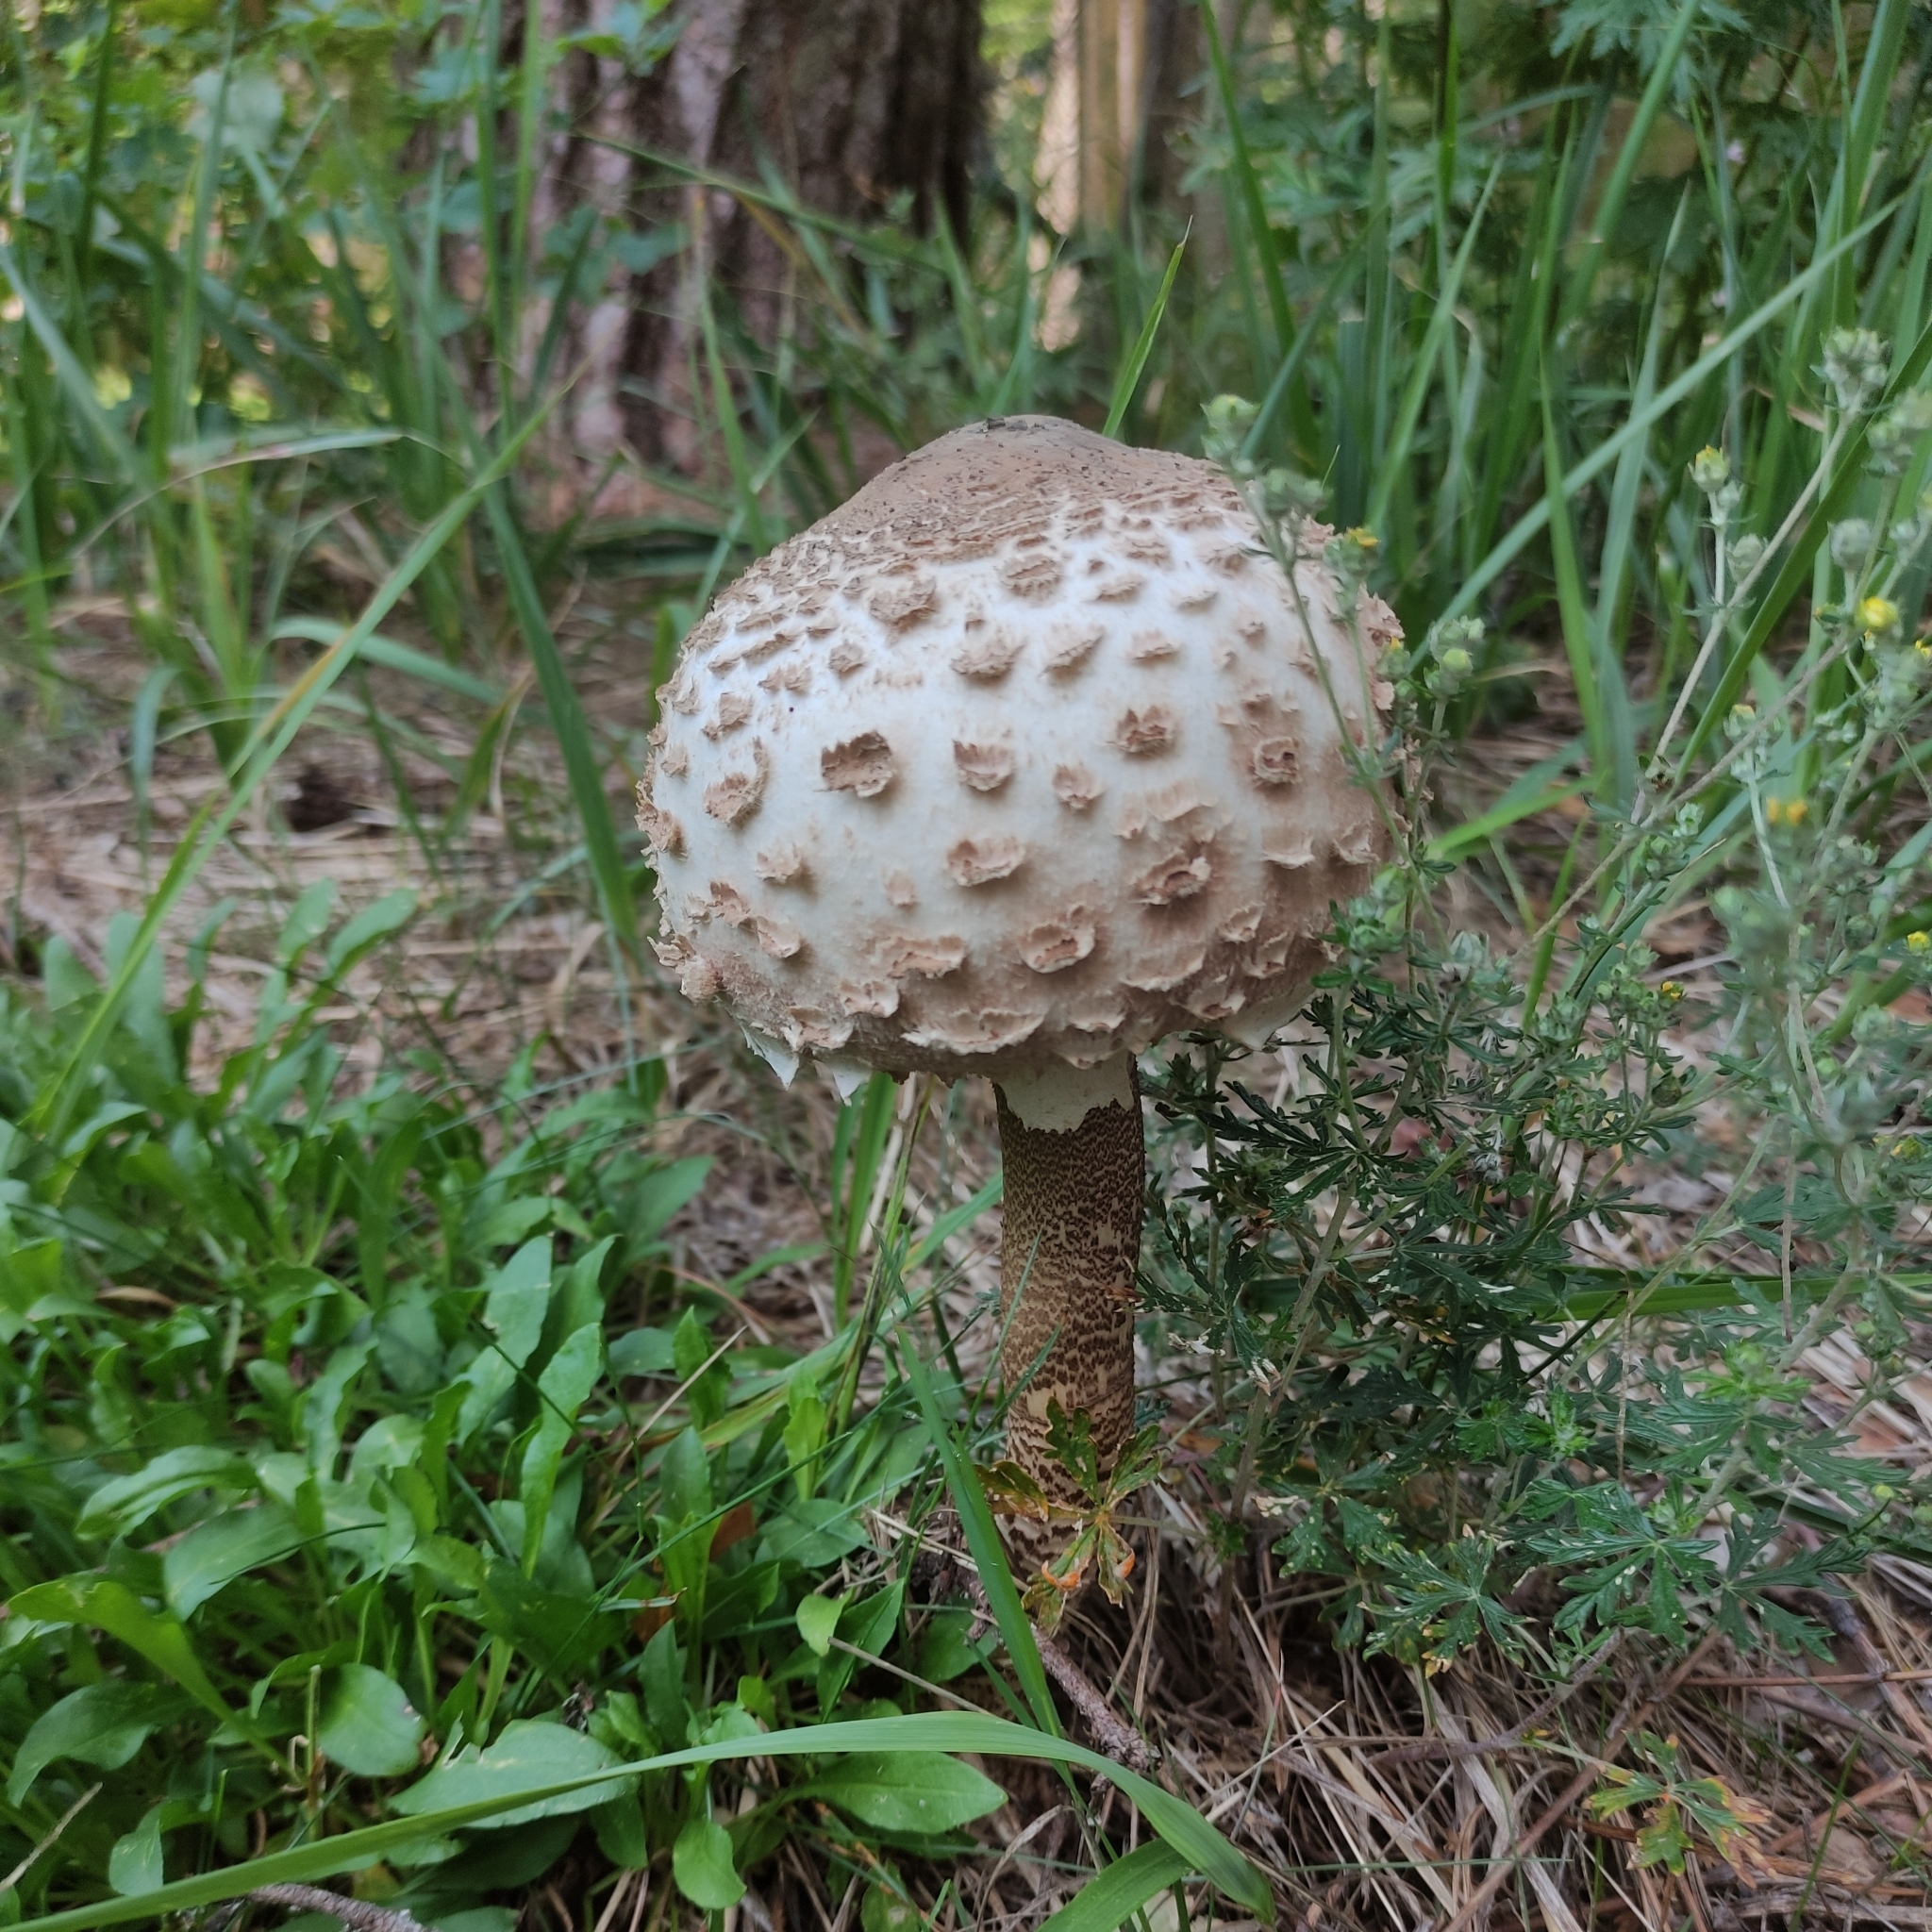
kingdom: Fungi
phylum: Basidiomycota
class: Agaricomycetes
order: Agaricales
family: Agaricaceae
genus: Macrolepiota
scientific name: Macrolepiota procera
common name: Parasol
